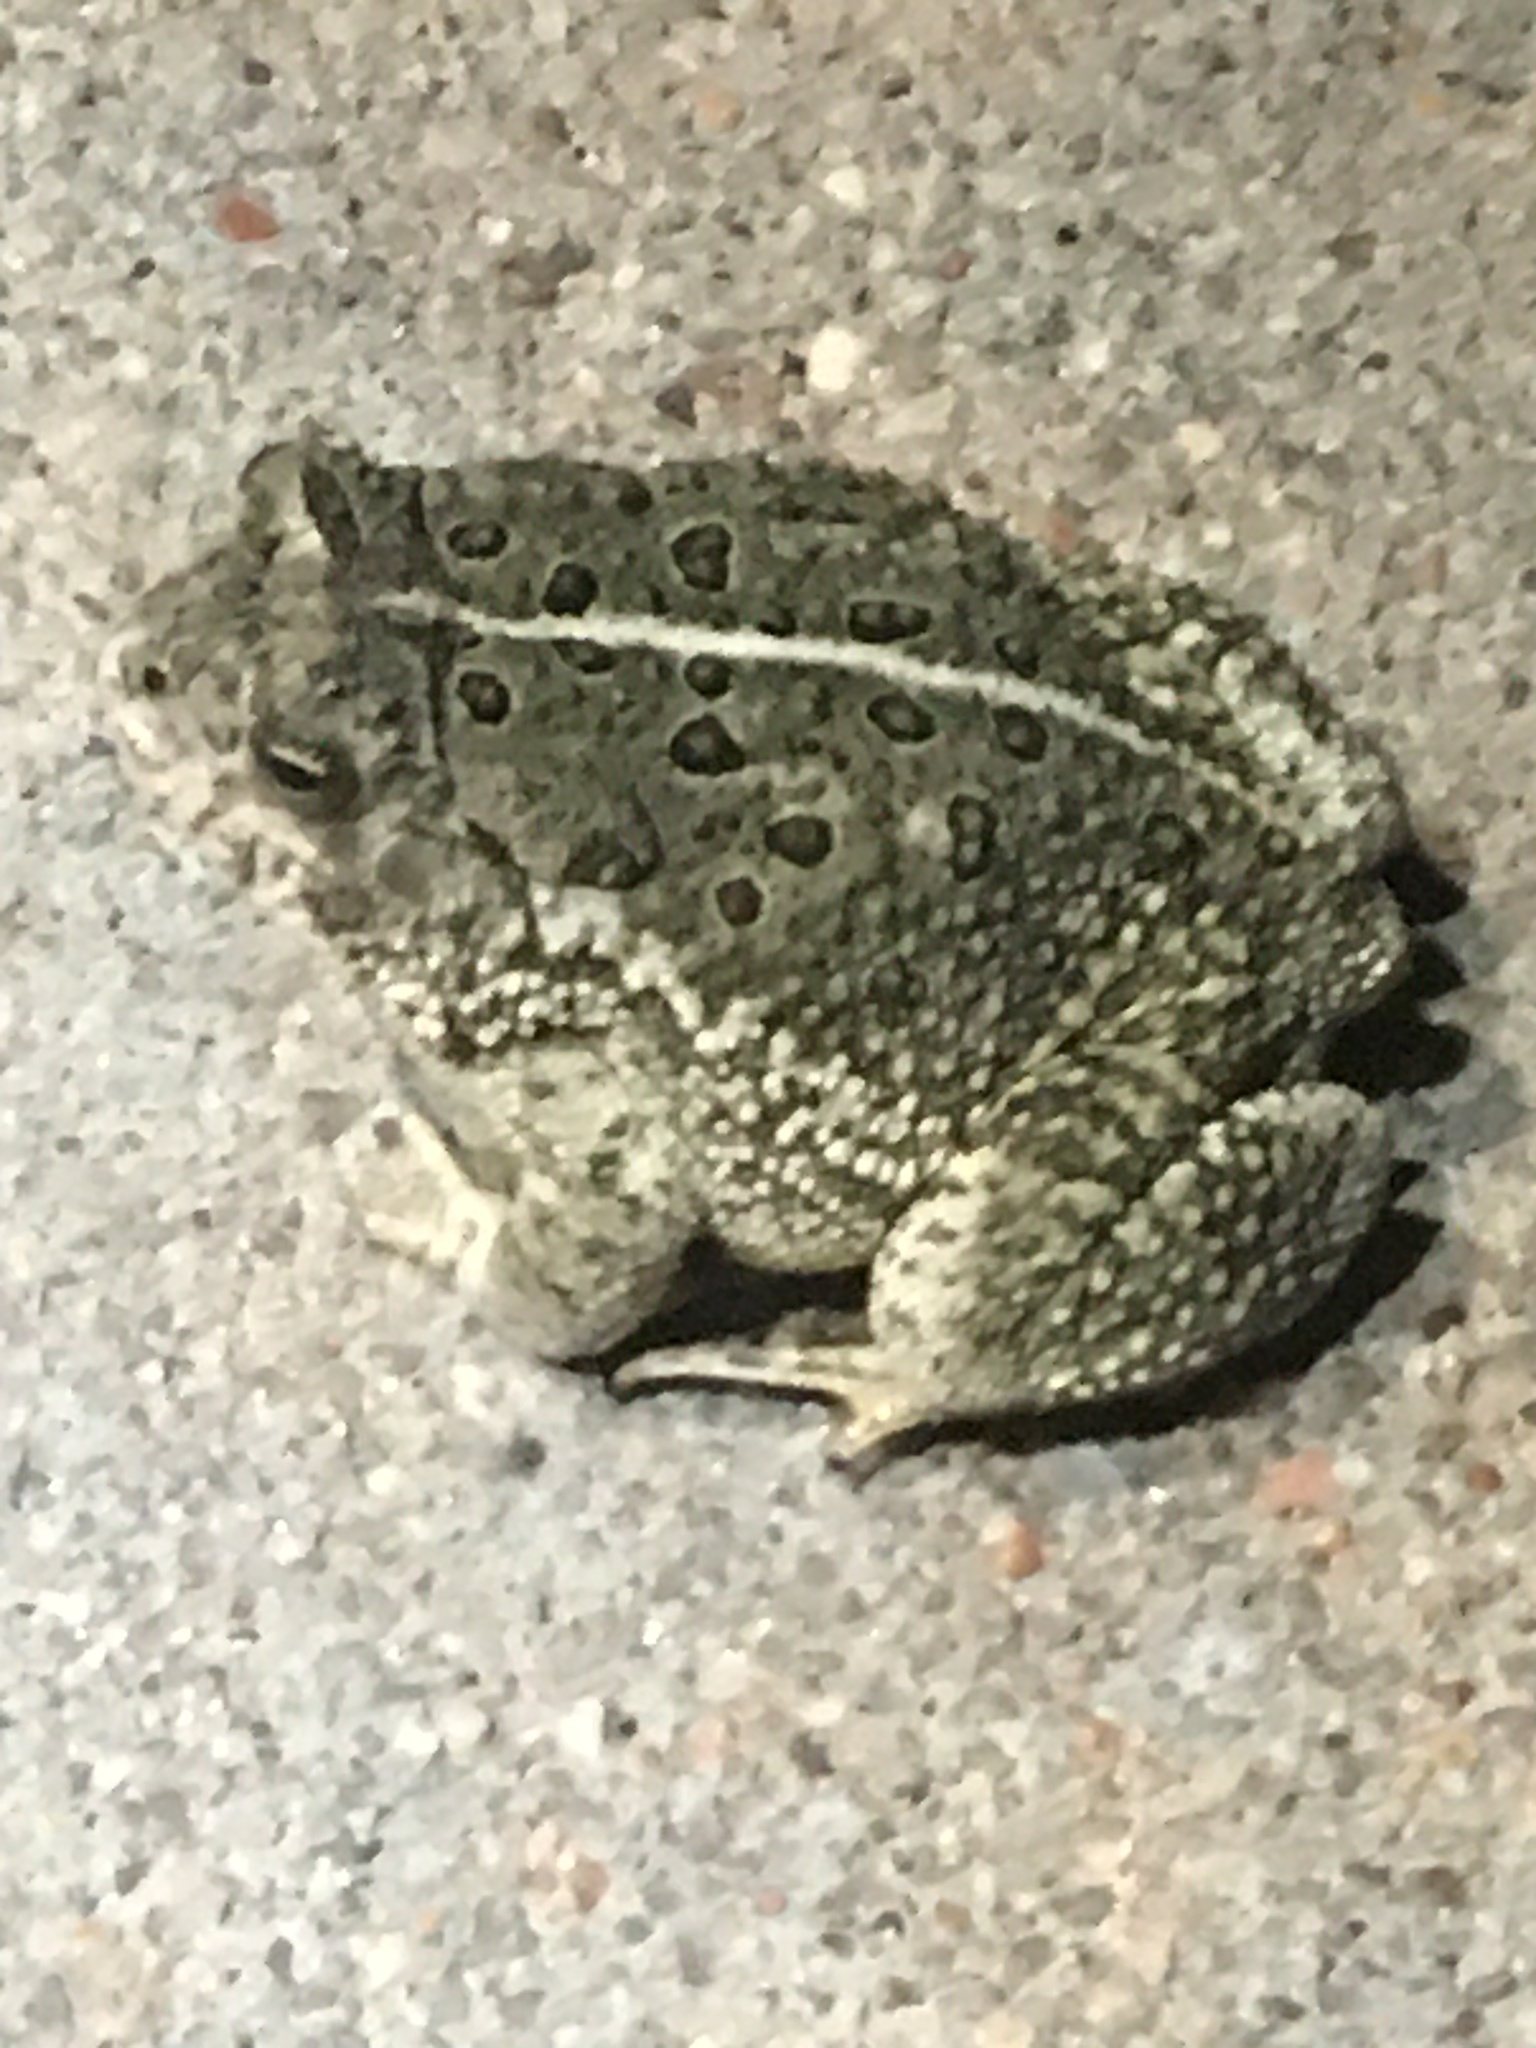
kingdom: Animalia
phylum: Chordata
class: Amphibia
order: Anura
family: Bufonidae
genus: Anaxyrus
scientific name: Anaxyrus woodhousii
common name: Woodhouse's toad
